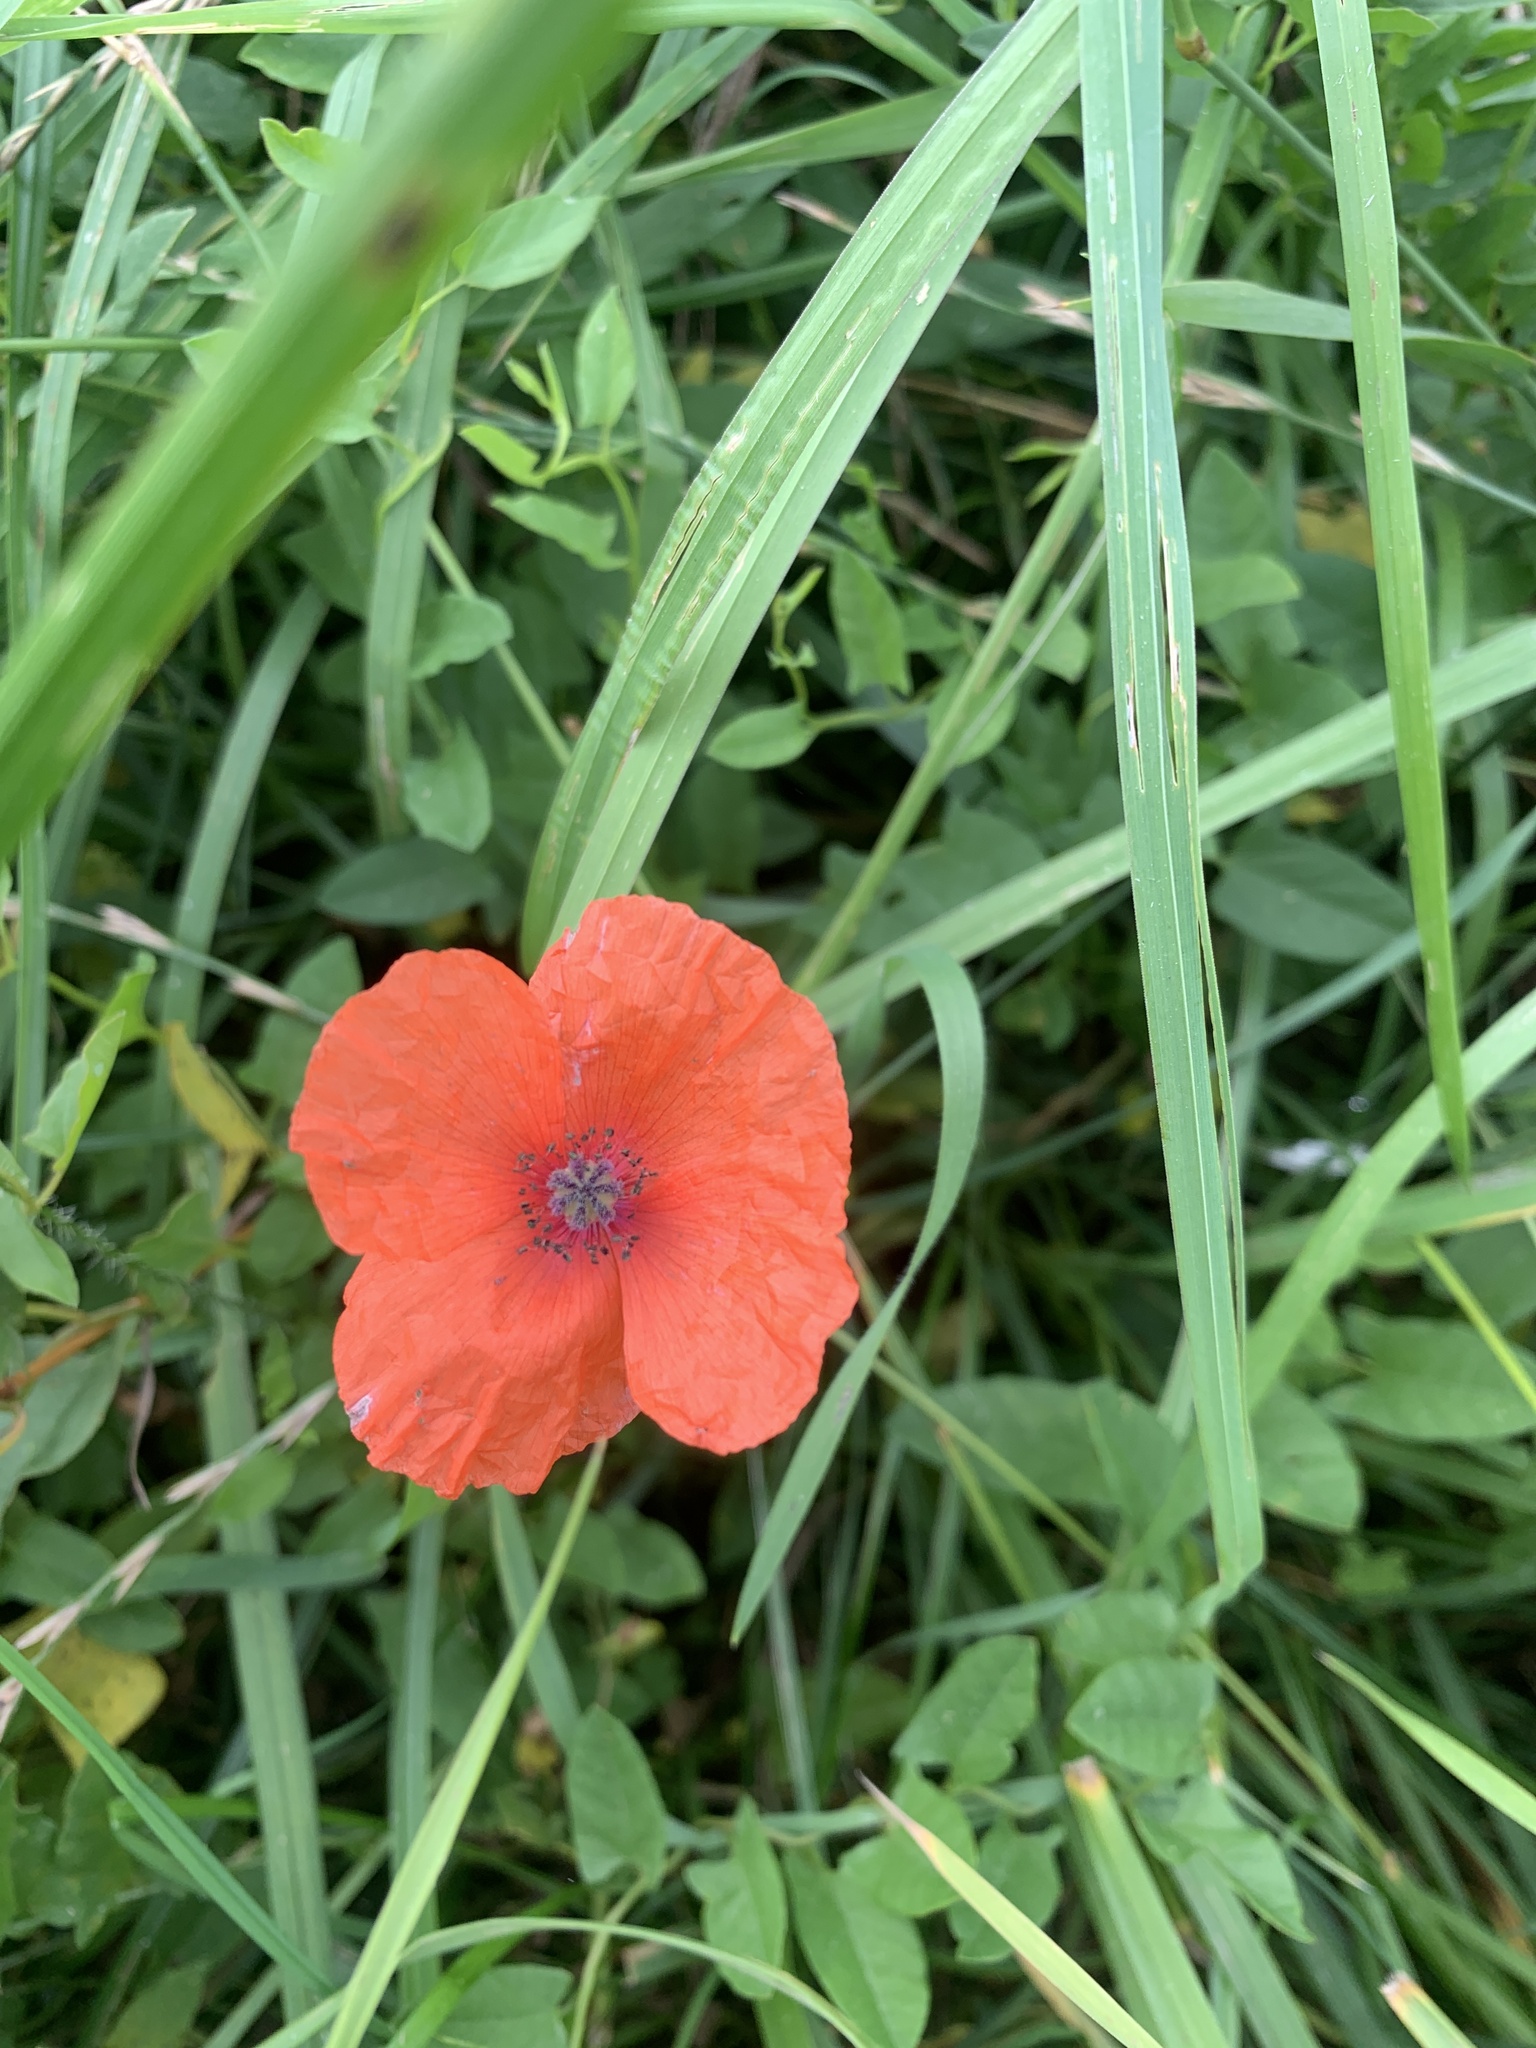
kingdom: Plantae
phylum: Tracheophyta
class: Magnoliopsida
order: Ranunculales
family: Papaveraceae
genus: Papaver
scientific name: Papaver rhoeas
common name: Corn poppy
